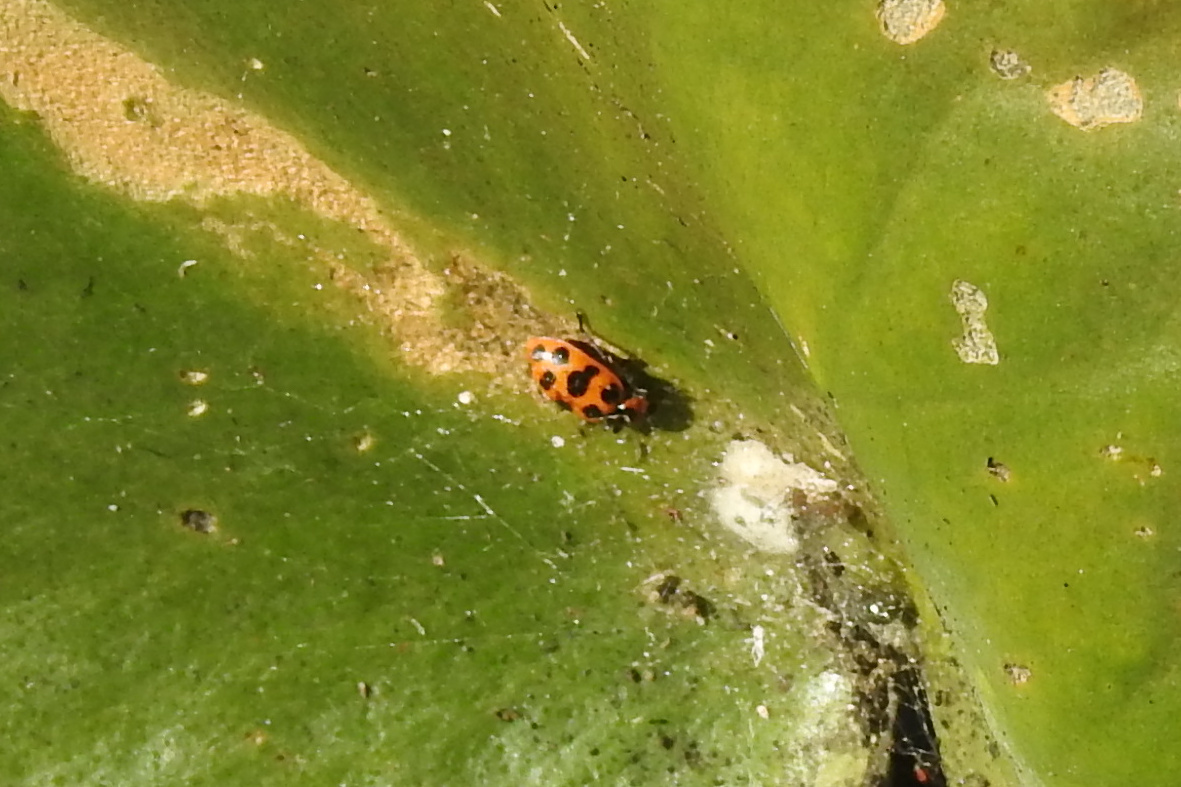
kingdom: Animalia
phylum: Arthropoda
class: Insecta
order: Coleoptera
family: Coccinellidae
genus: Coleomegilla
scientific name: Coleomegilla maculata
